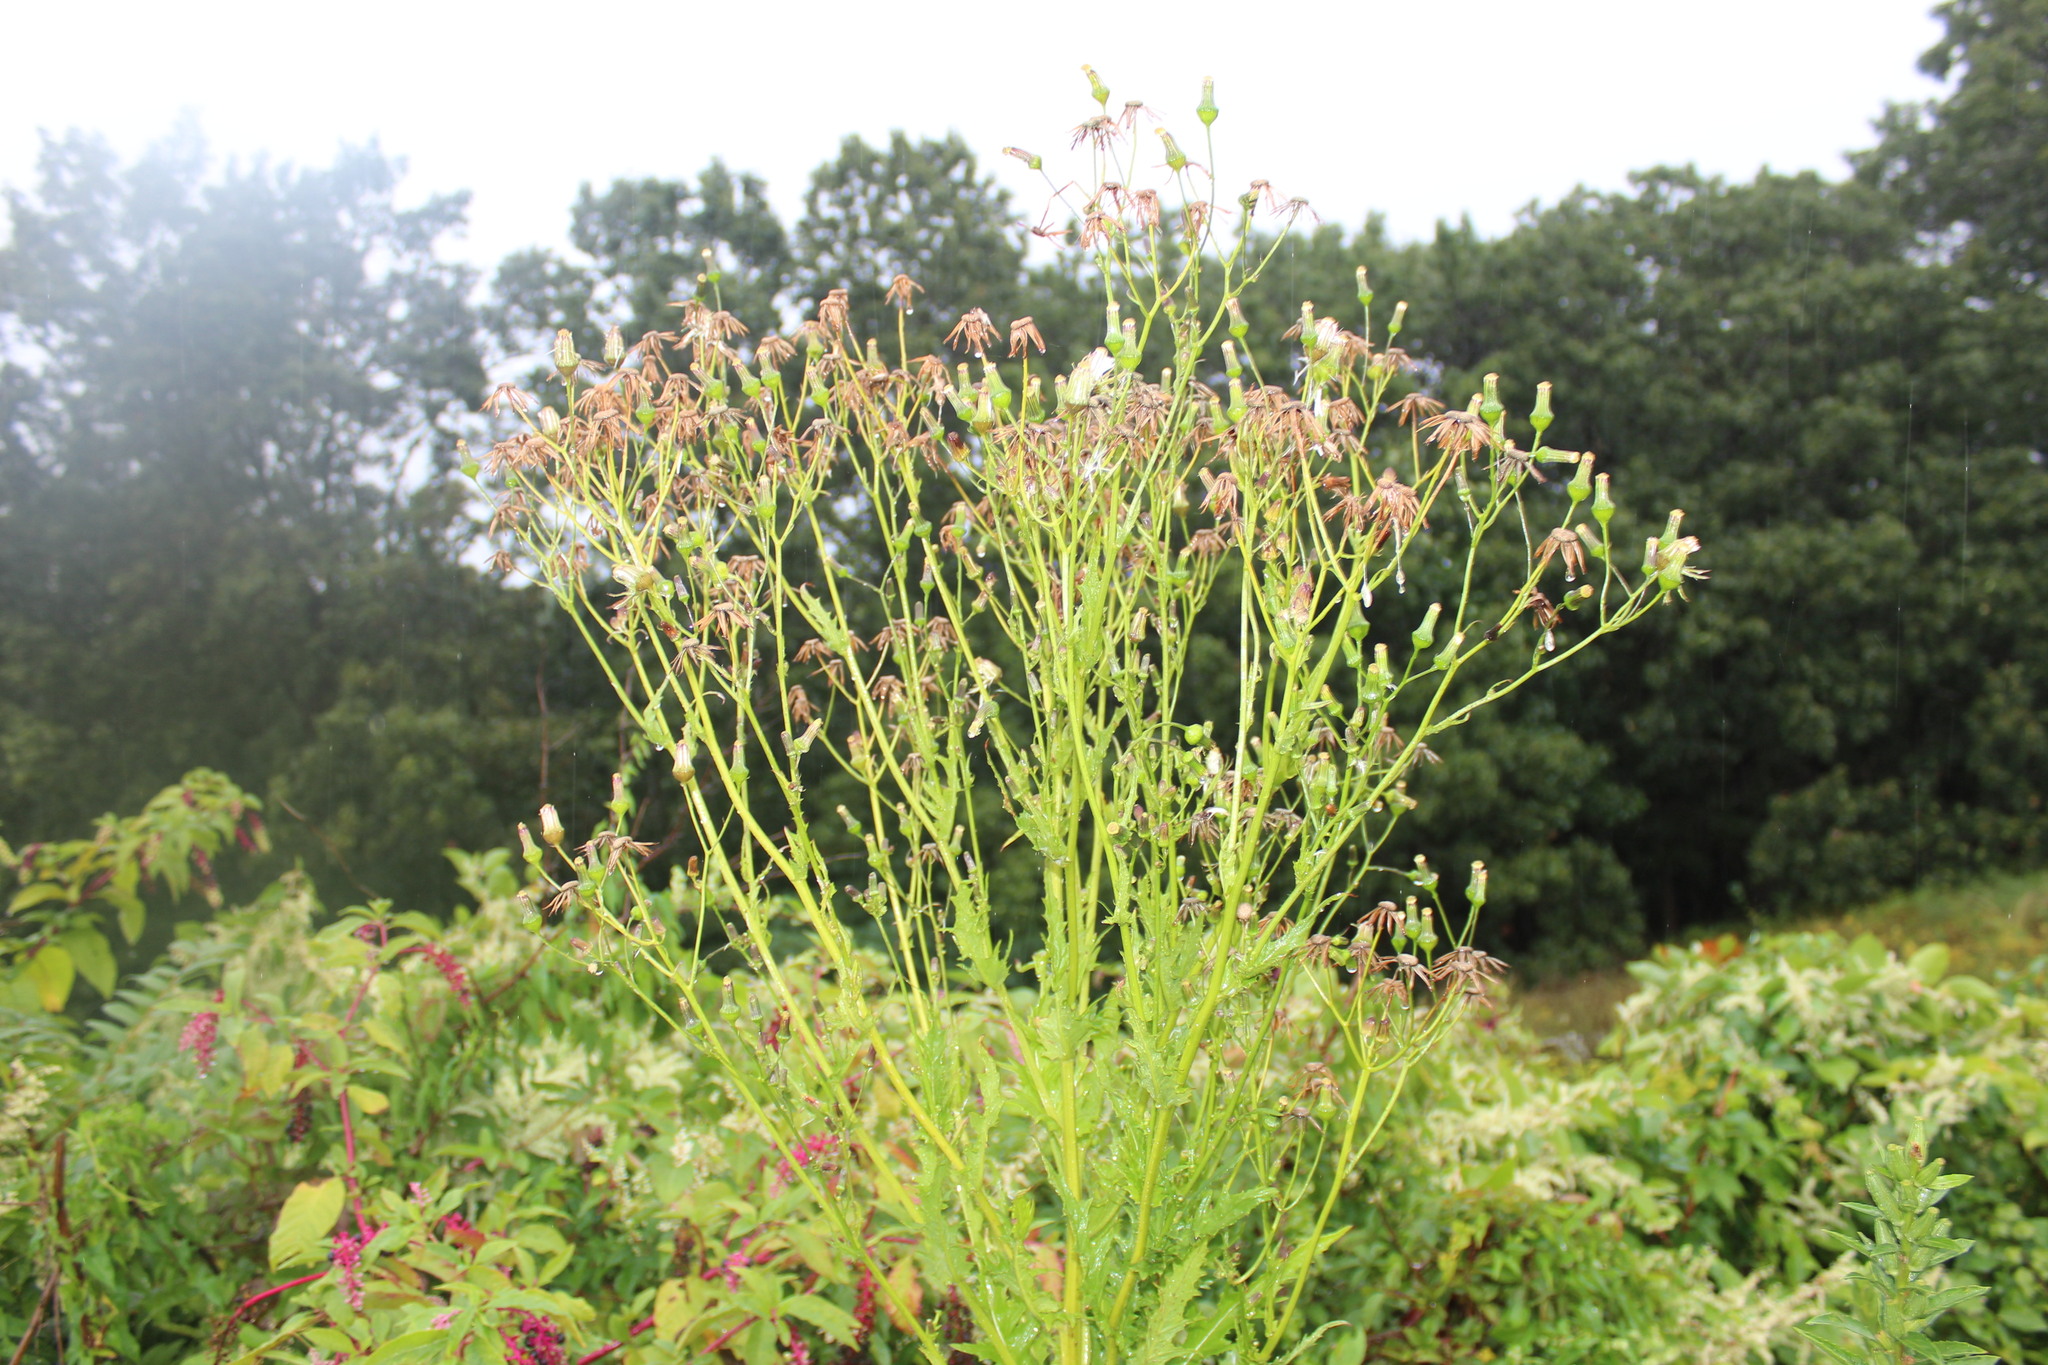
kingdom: Plantae
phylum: Tracheophyta
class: Magnoliopsida
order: Asterales
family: Asteraceae
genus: Erechtites
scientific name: Erechtites hieraciifolius
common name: American burnweed
